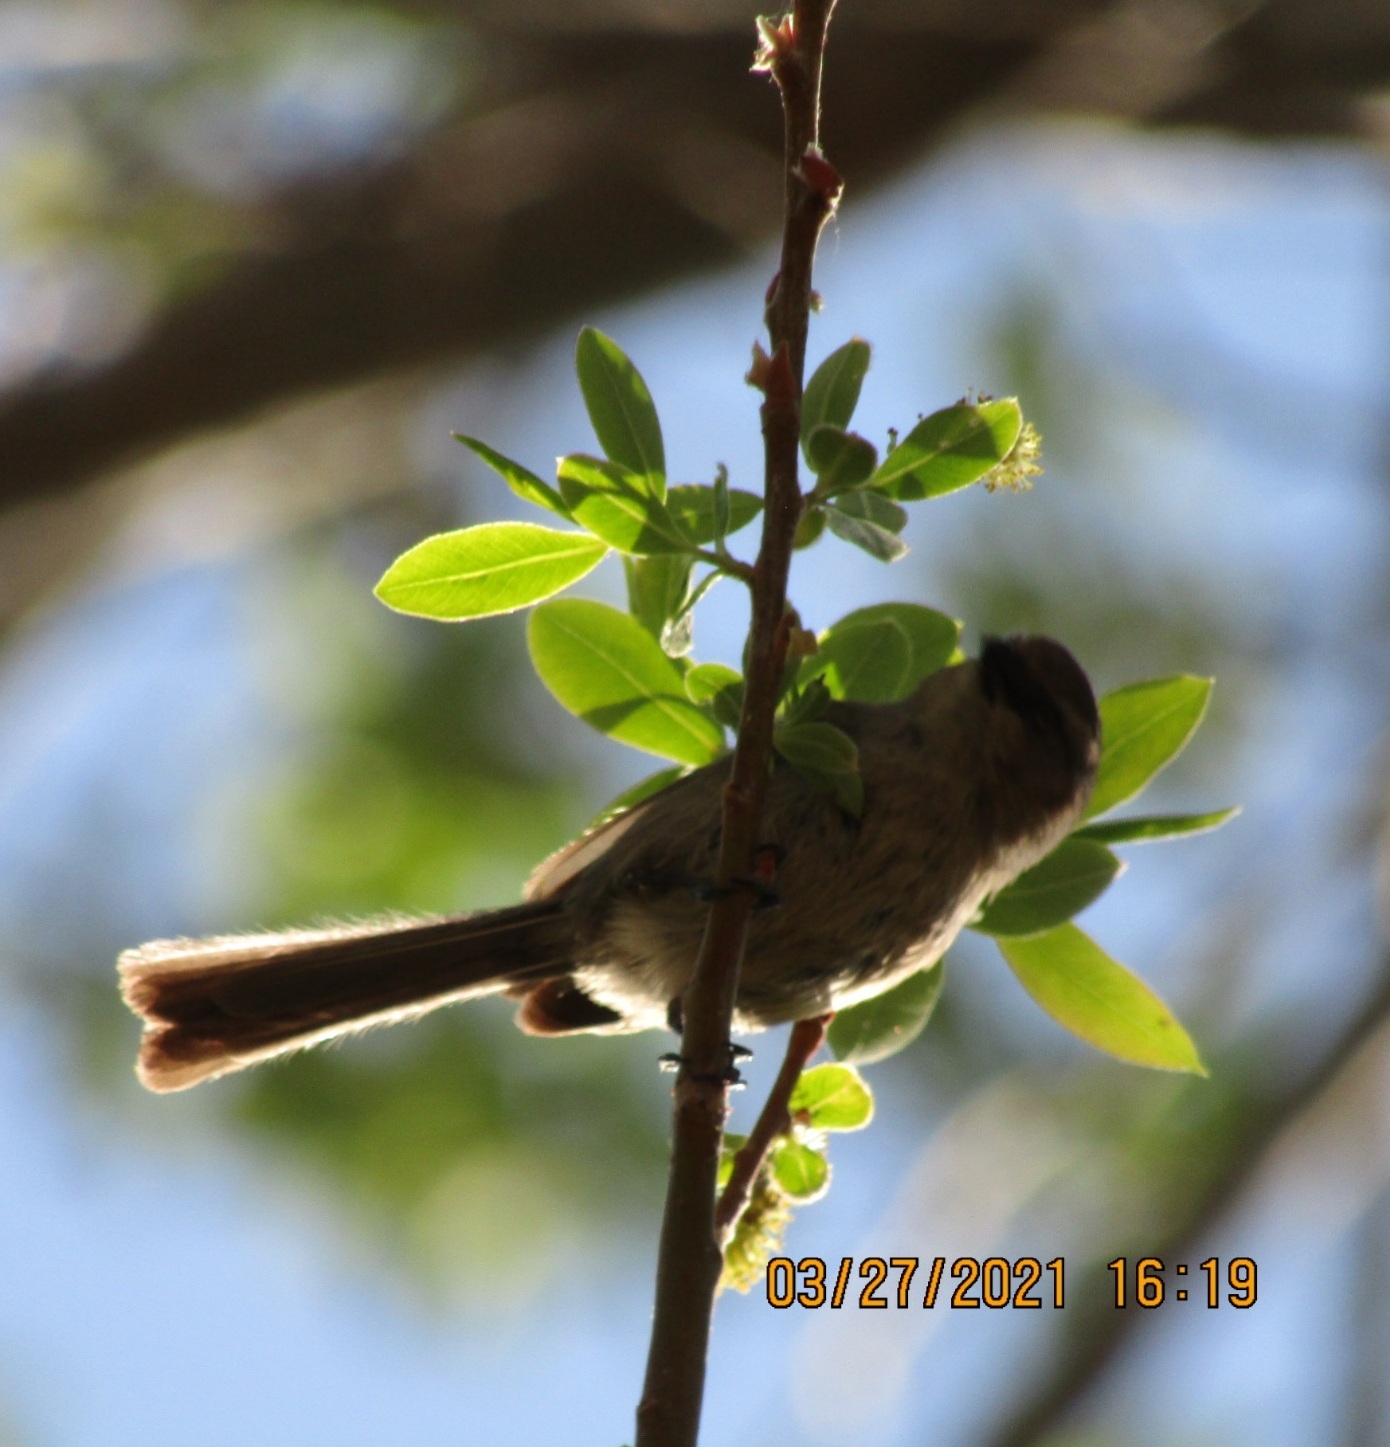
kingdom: Animalia
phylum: Chordata
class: Aves
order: Passeriformes
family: Aegithalidae
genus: Psaltriparus
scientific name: Psaltriparus minimus
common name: American bushtit
